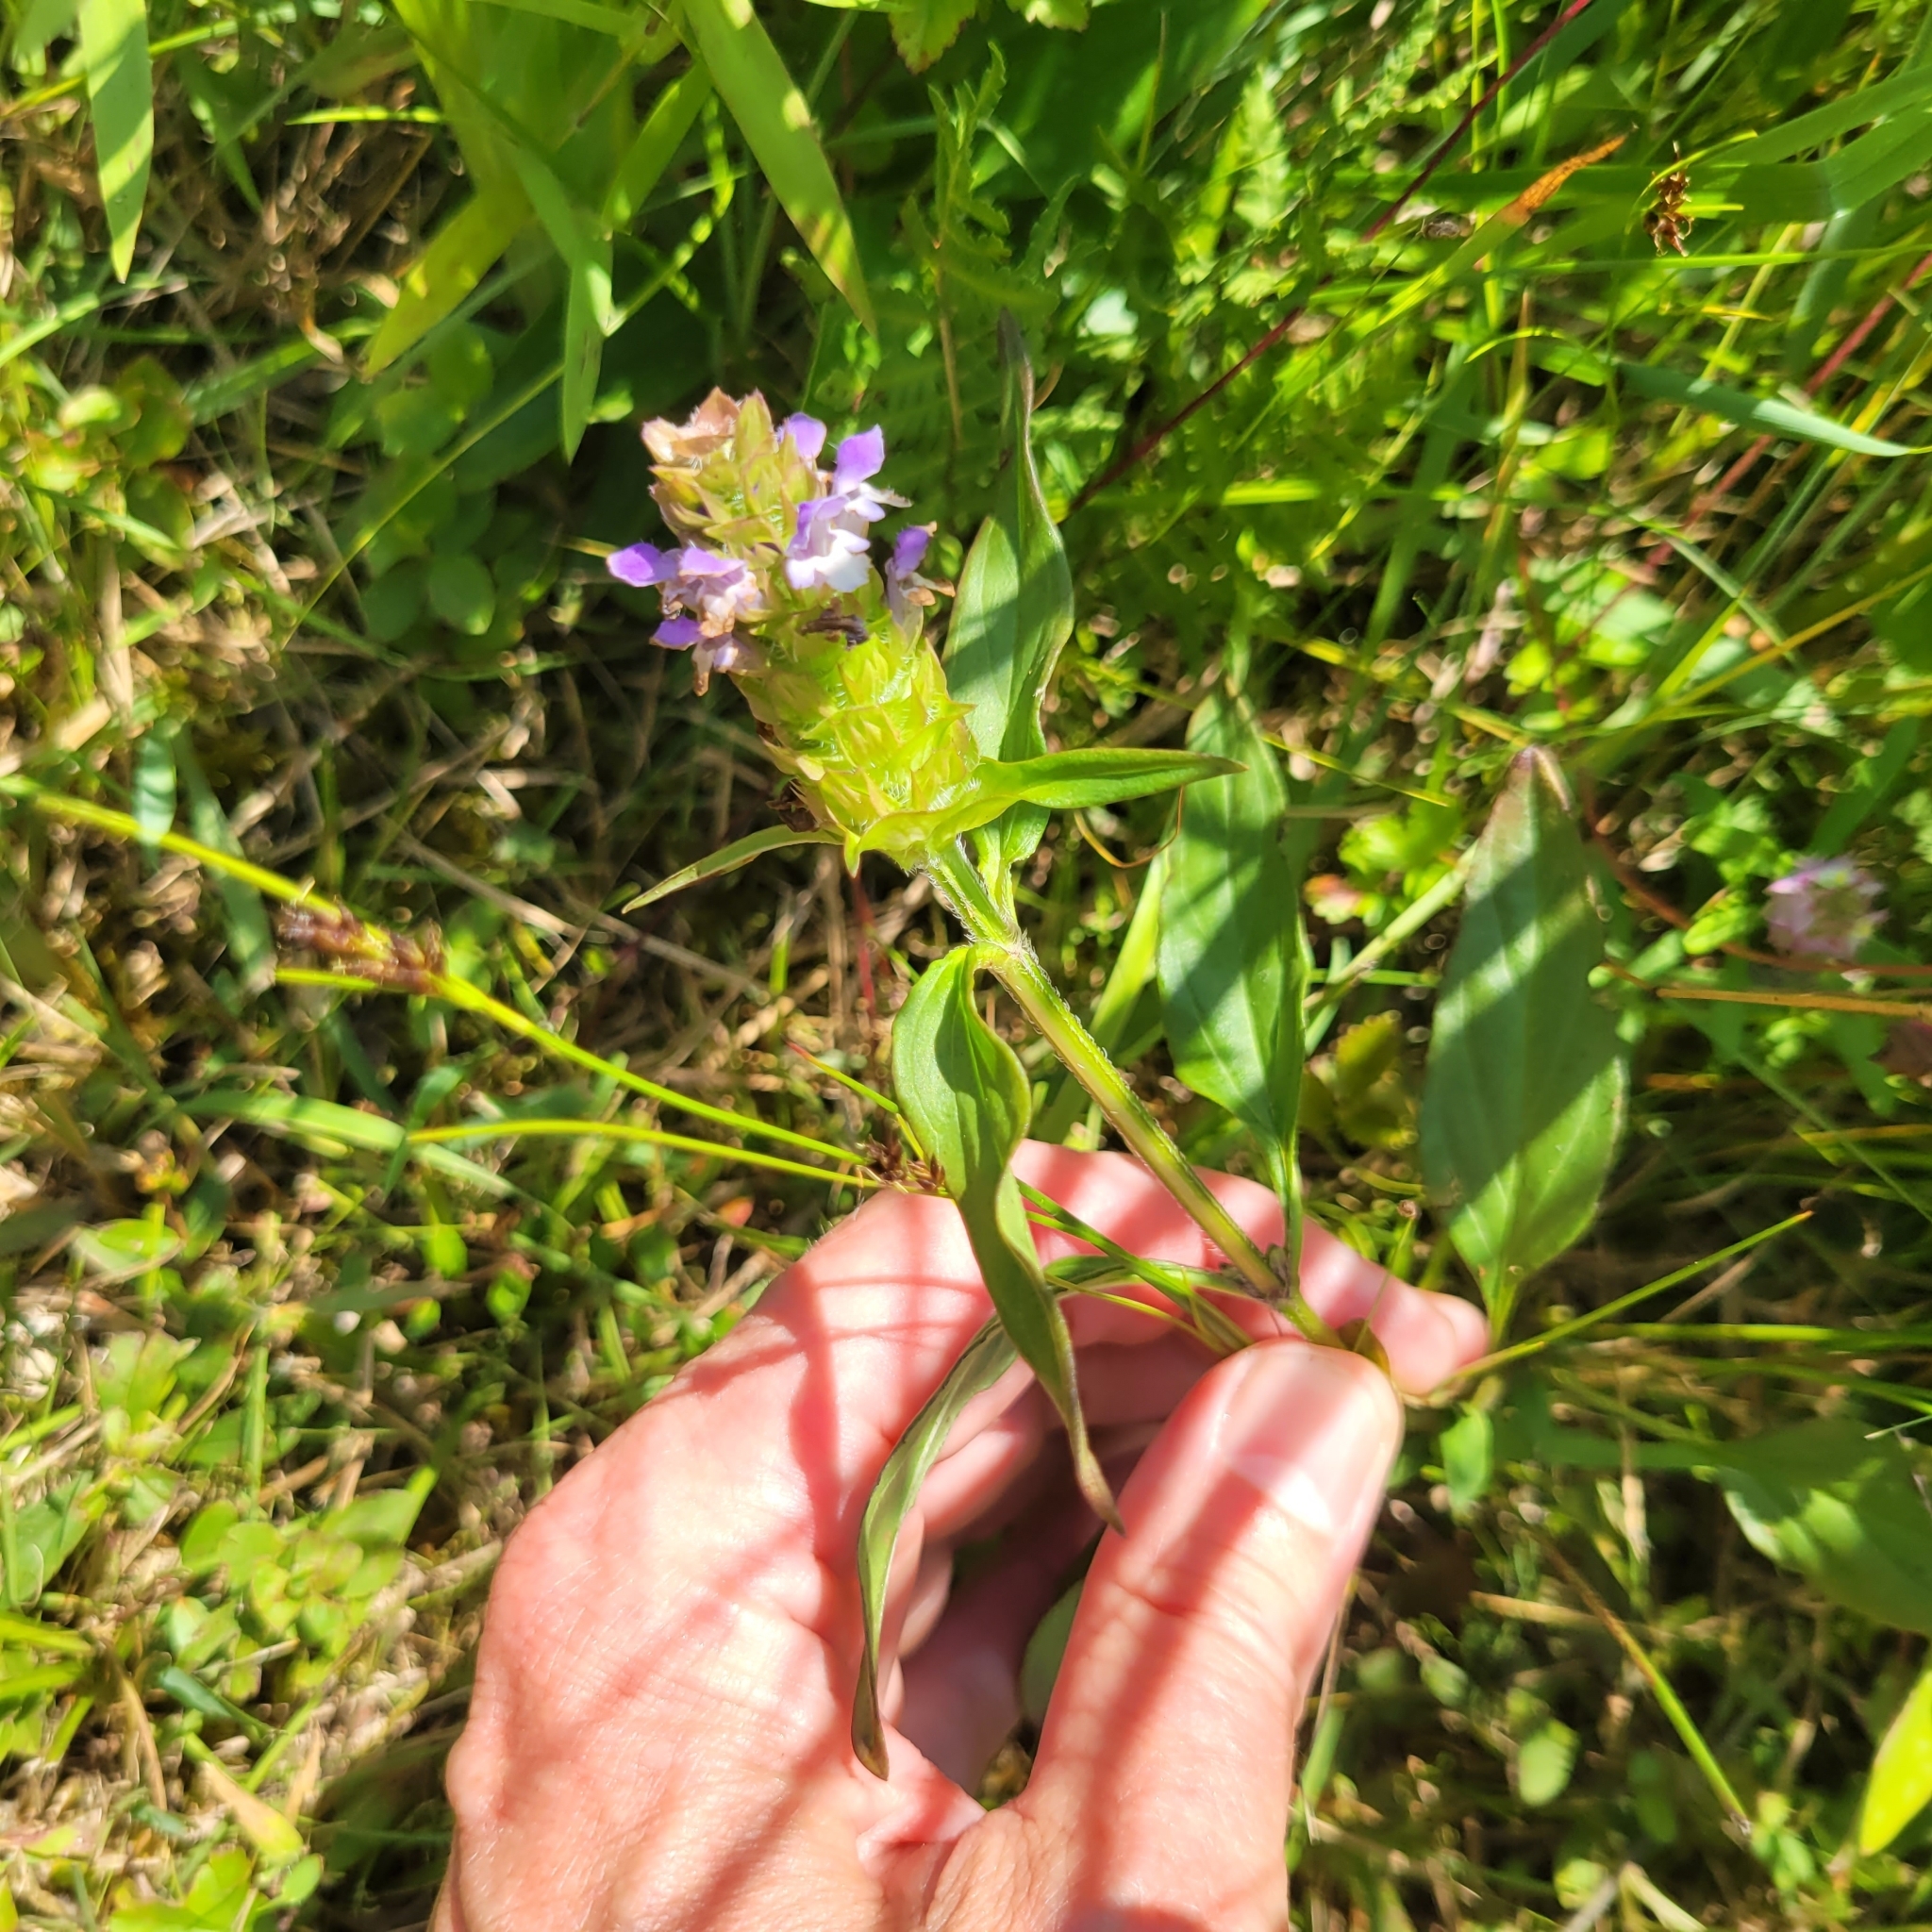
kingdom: Plantae
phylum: Tracheophyta
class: Magnoliopsida
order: Lamiales
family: Lamiaceae
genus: Prunella
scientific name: Prunella vulgaris
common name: Heal-all
